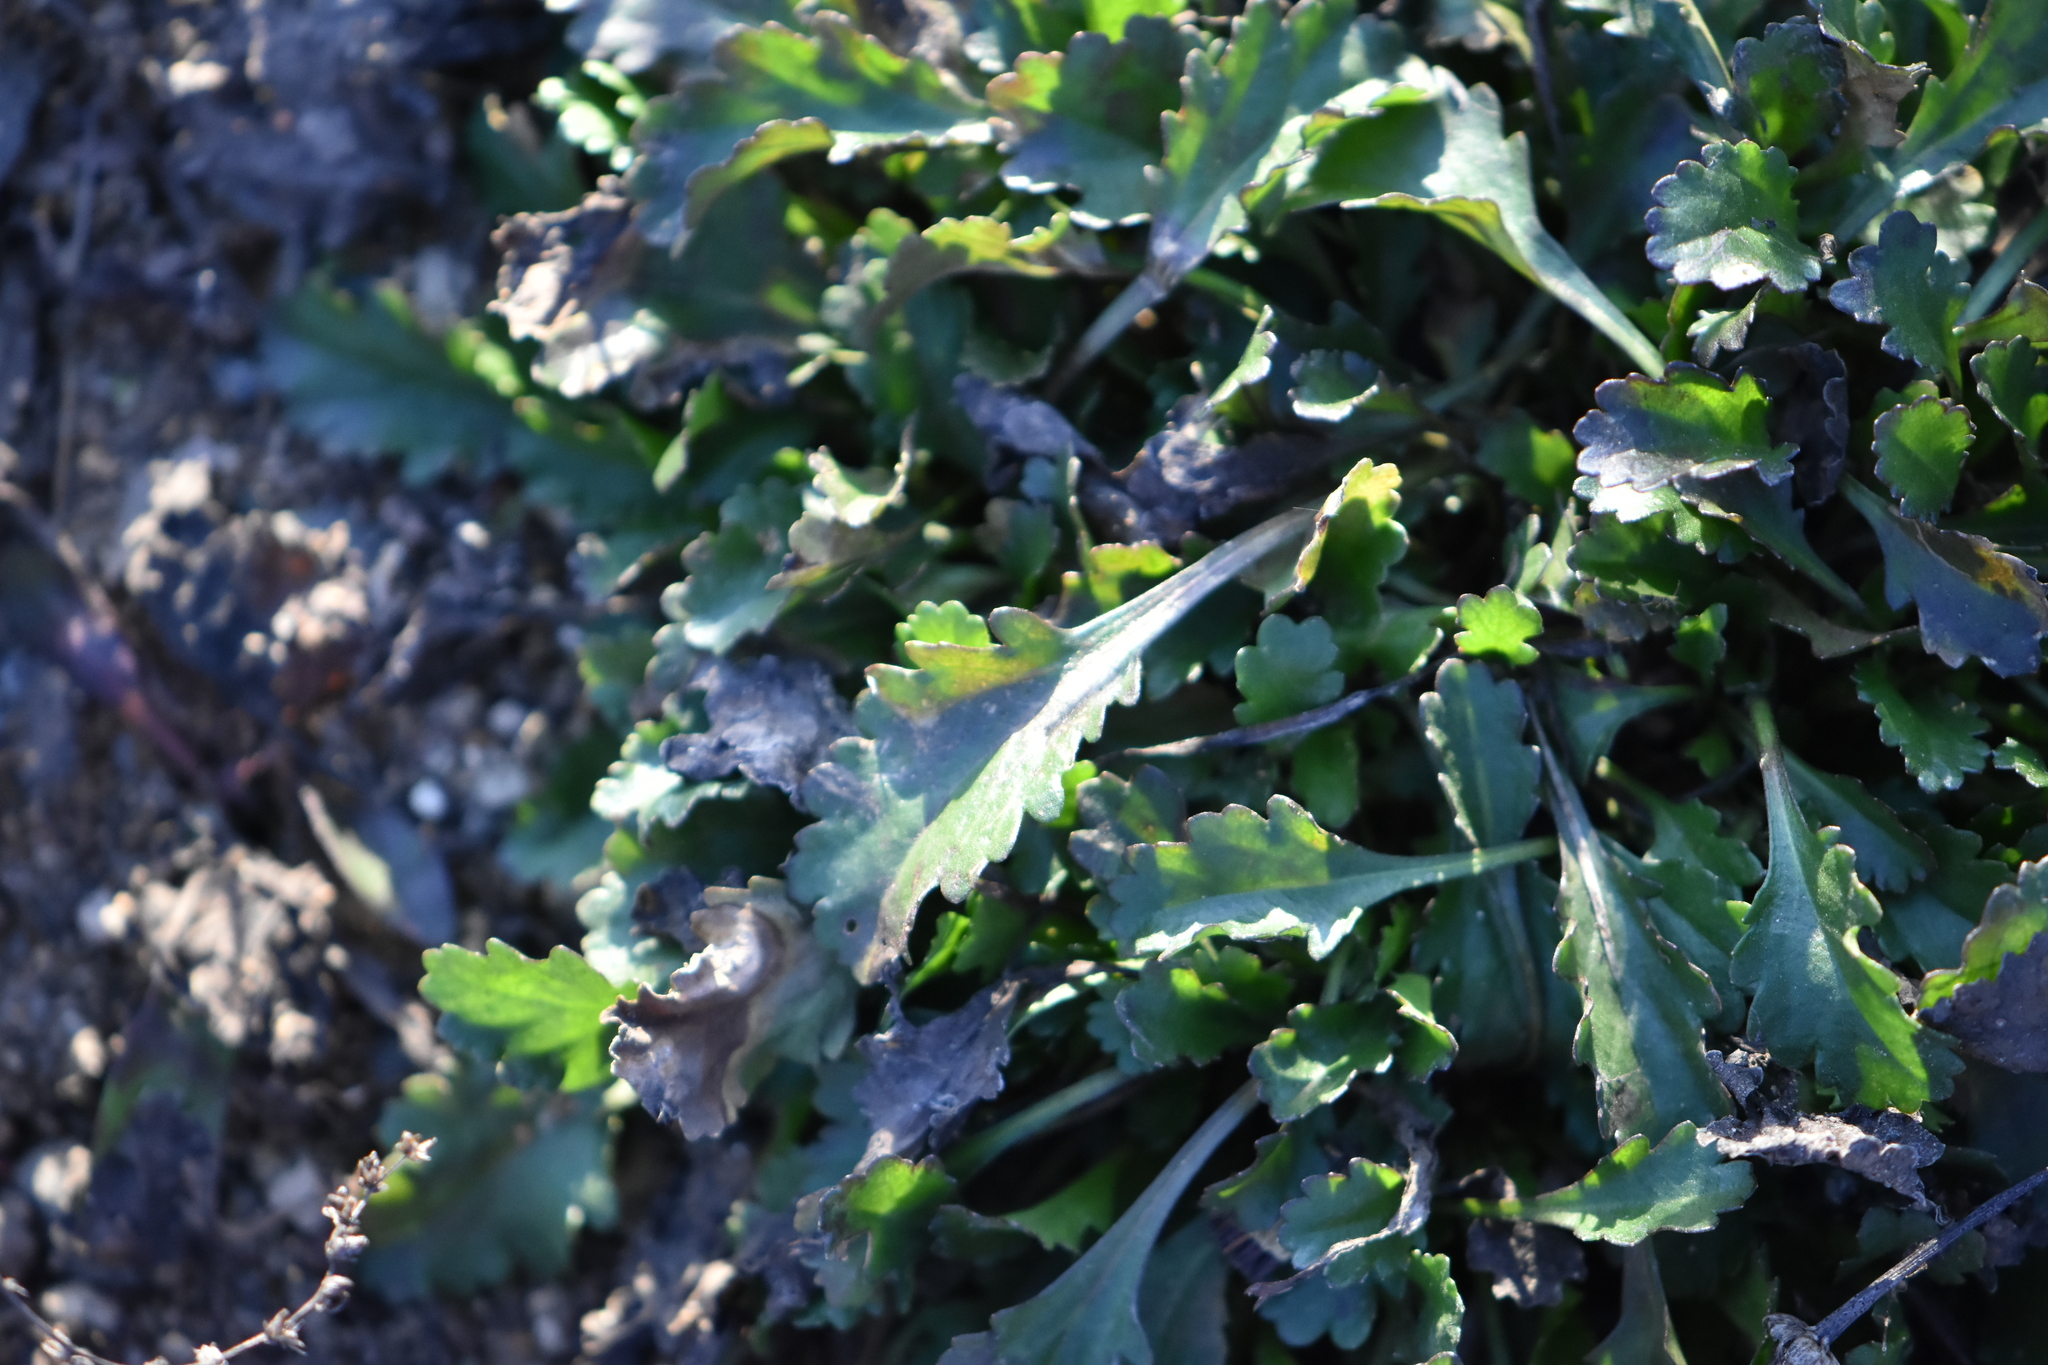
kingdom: Plantae
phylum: Tracheophyta
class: Magnoliopsida
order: Asterales
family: Asteraceae
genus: Leucanthemum
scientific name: Leucanthemum vulgare
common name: Oxeye daisy
